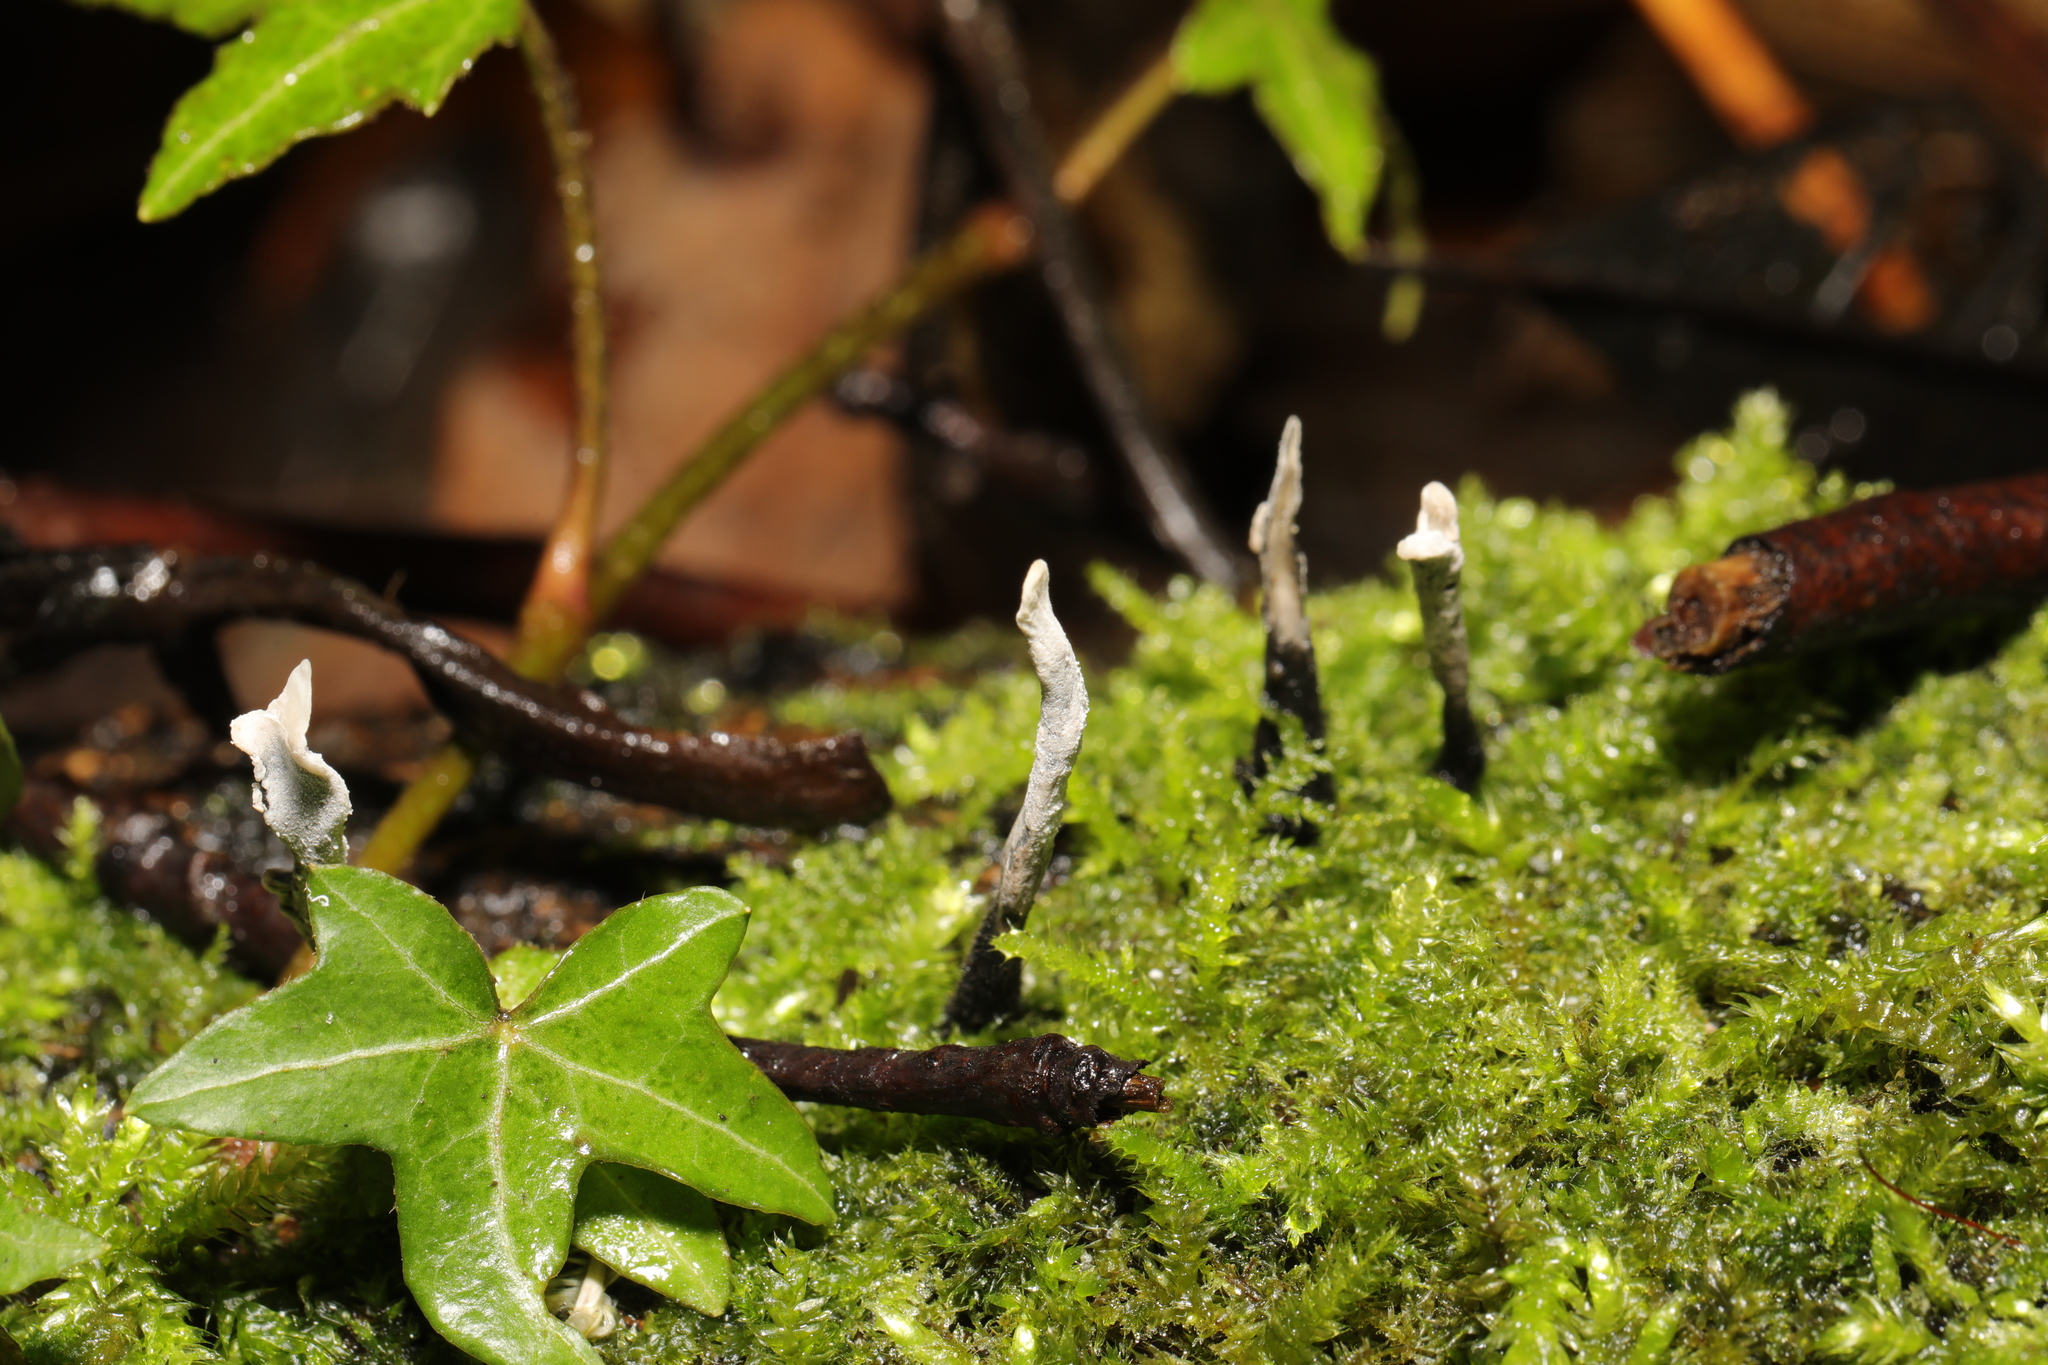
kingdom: Fungi
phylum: Ascomycota
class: Sordariomycetes
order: Xylariales
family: Xylariaceae
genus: Xylaria
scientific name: Xylaria hypoxylon
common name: Candle-snuff fungus
